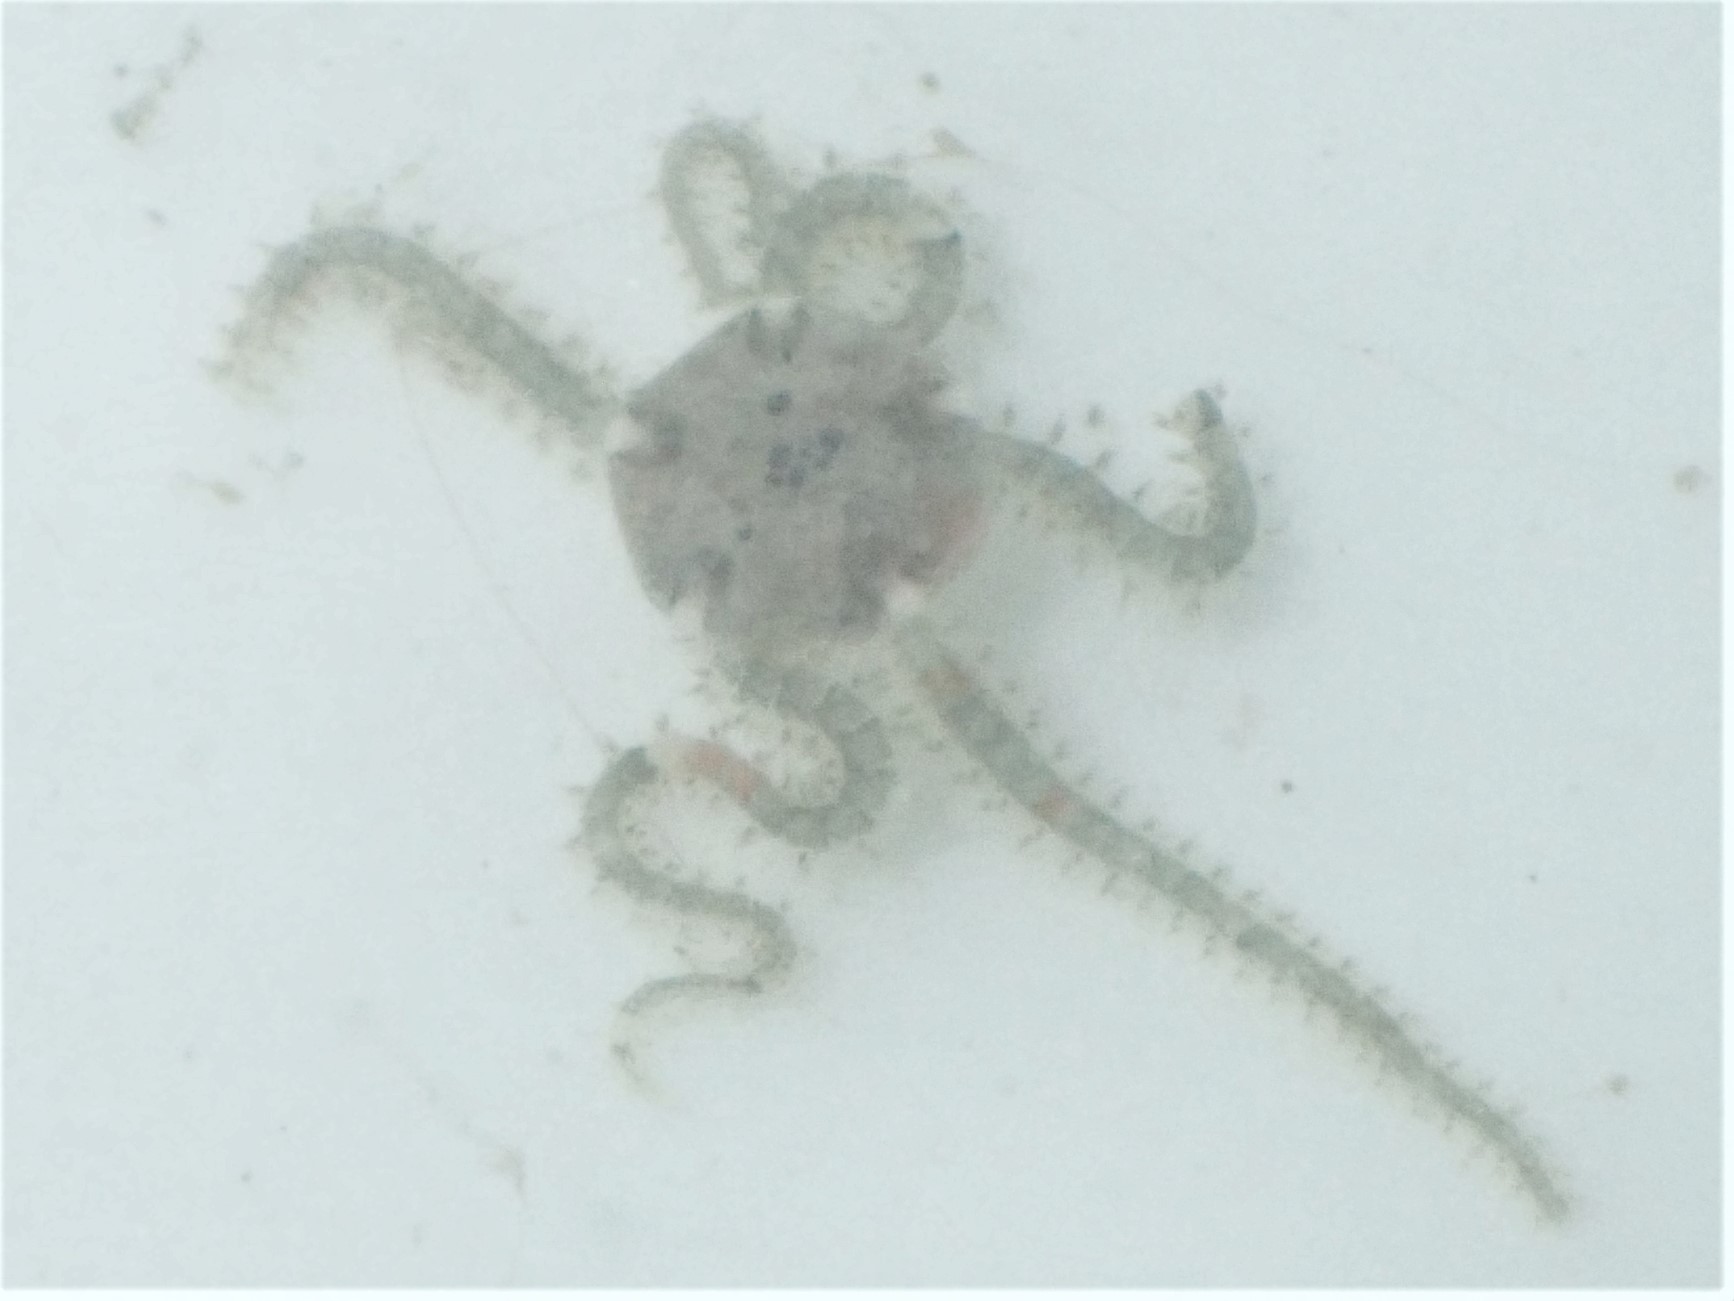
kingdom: Animalia
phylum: Echinodermata
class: Ophiuroidea
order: Amphilepidida
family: Amphiuridae
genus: Amphipholis
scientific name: Amphipholis squamata
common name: Brooding snake star
